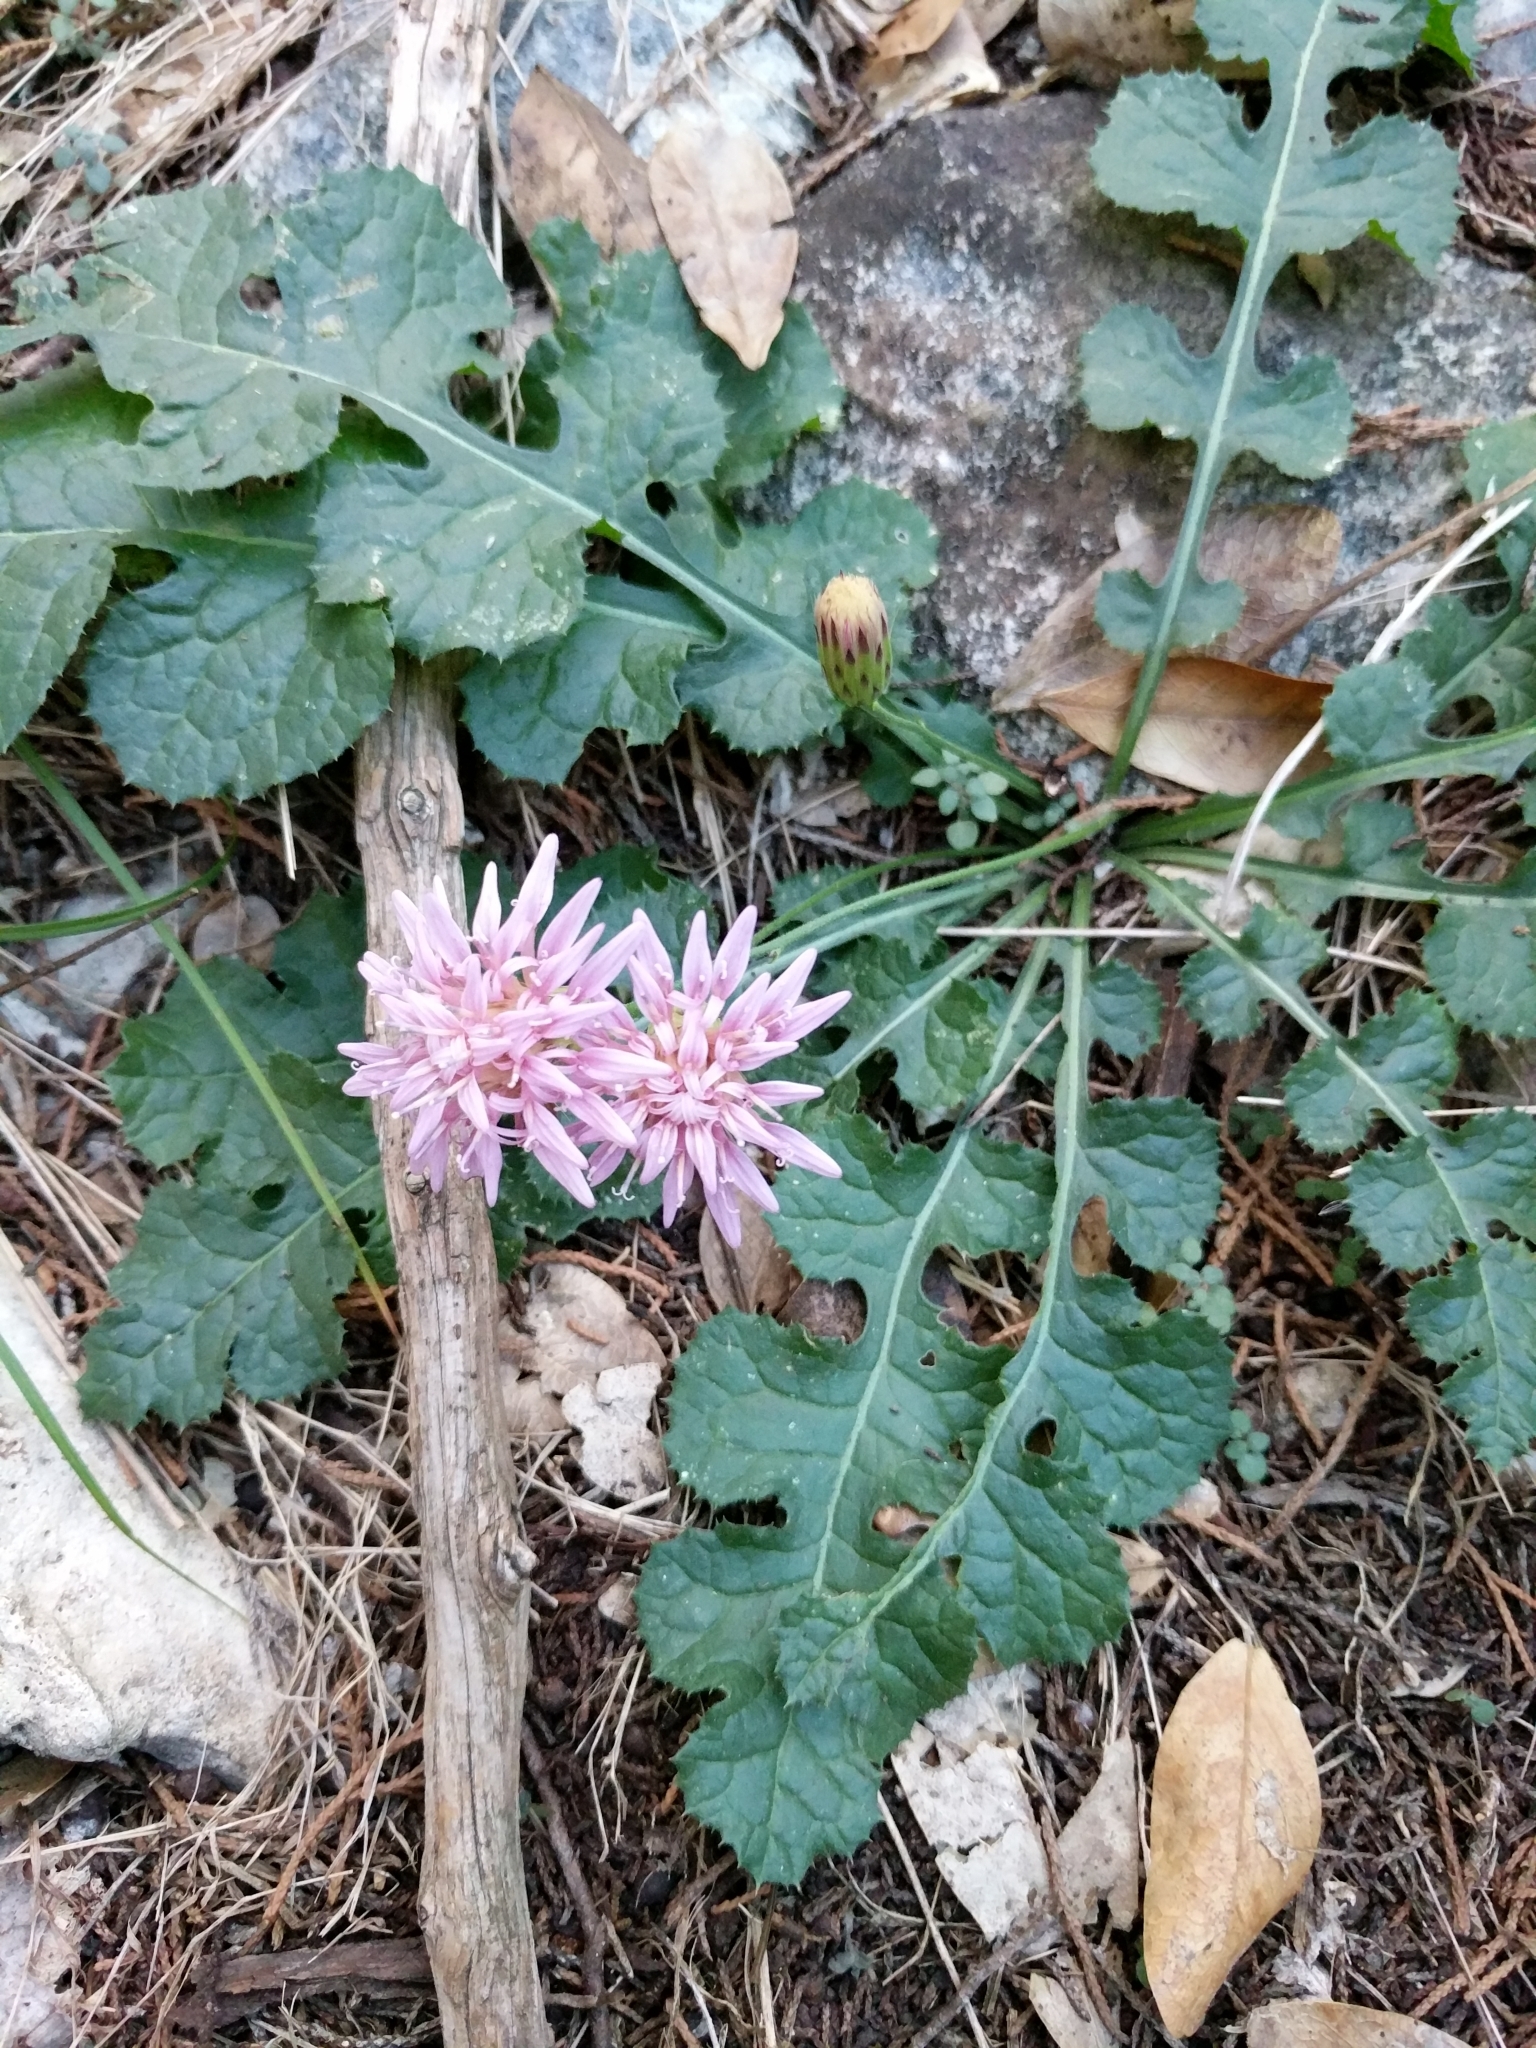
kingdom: Plantae
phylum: Tracheophyta
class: Magnoliopsida
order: Asterales
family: Asteraceae
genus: Acourtia
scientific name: Acourtia runcinata
